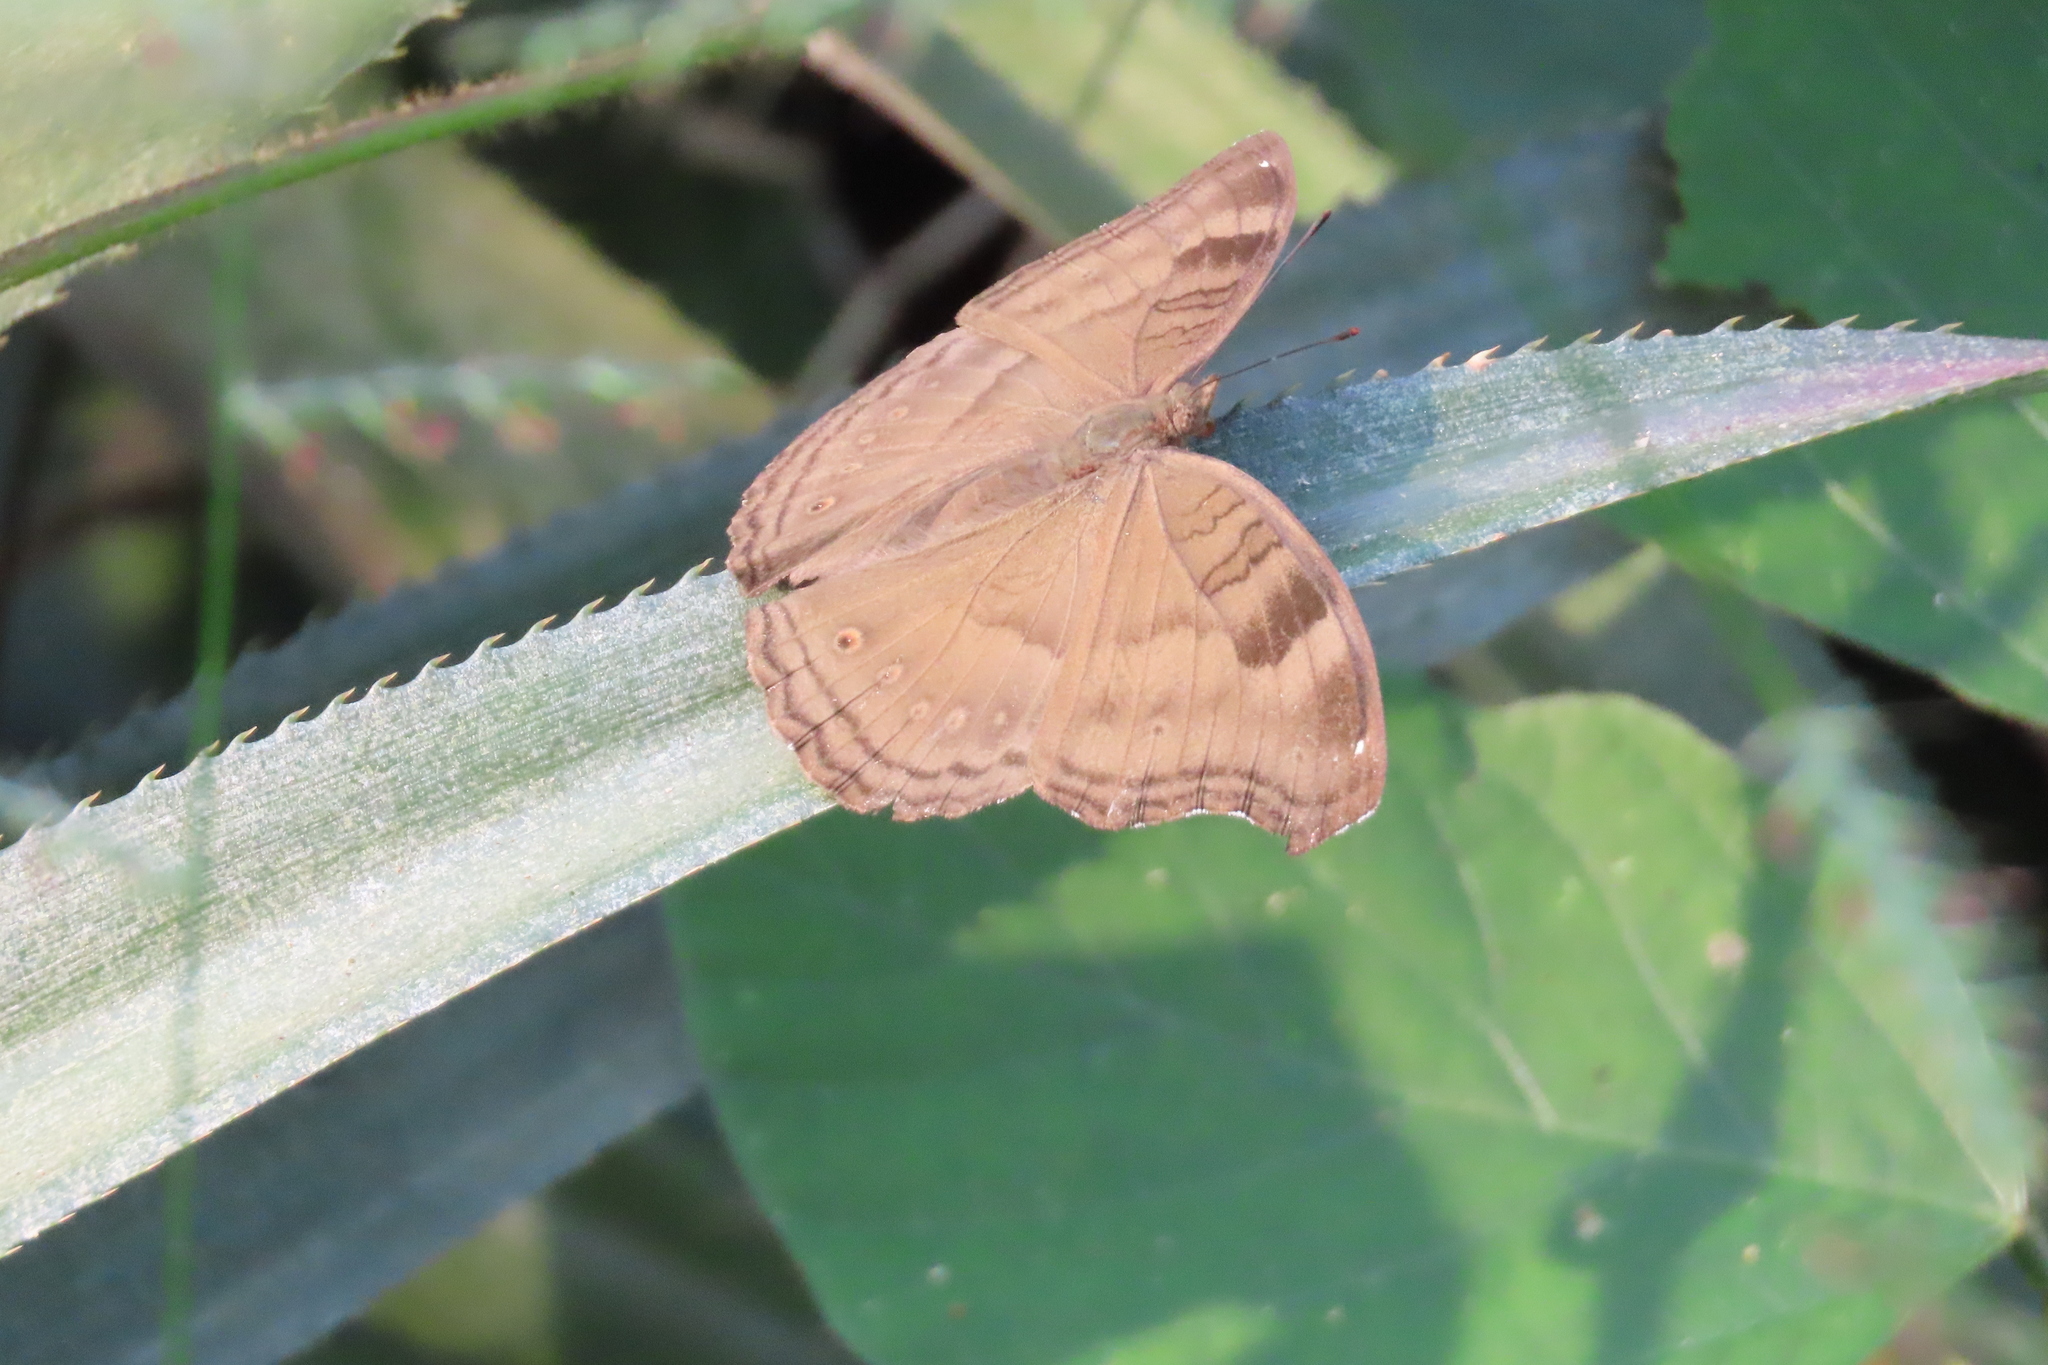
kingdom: Animalia
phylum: Arthropoda
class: Insecta
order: Lepidoptera
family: Nymphalidae
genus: Junonia
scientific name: Junonia iphita
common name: Chocolate pansy
